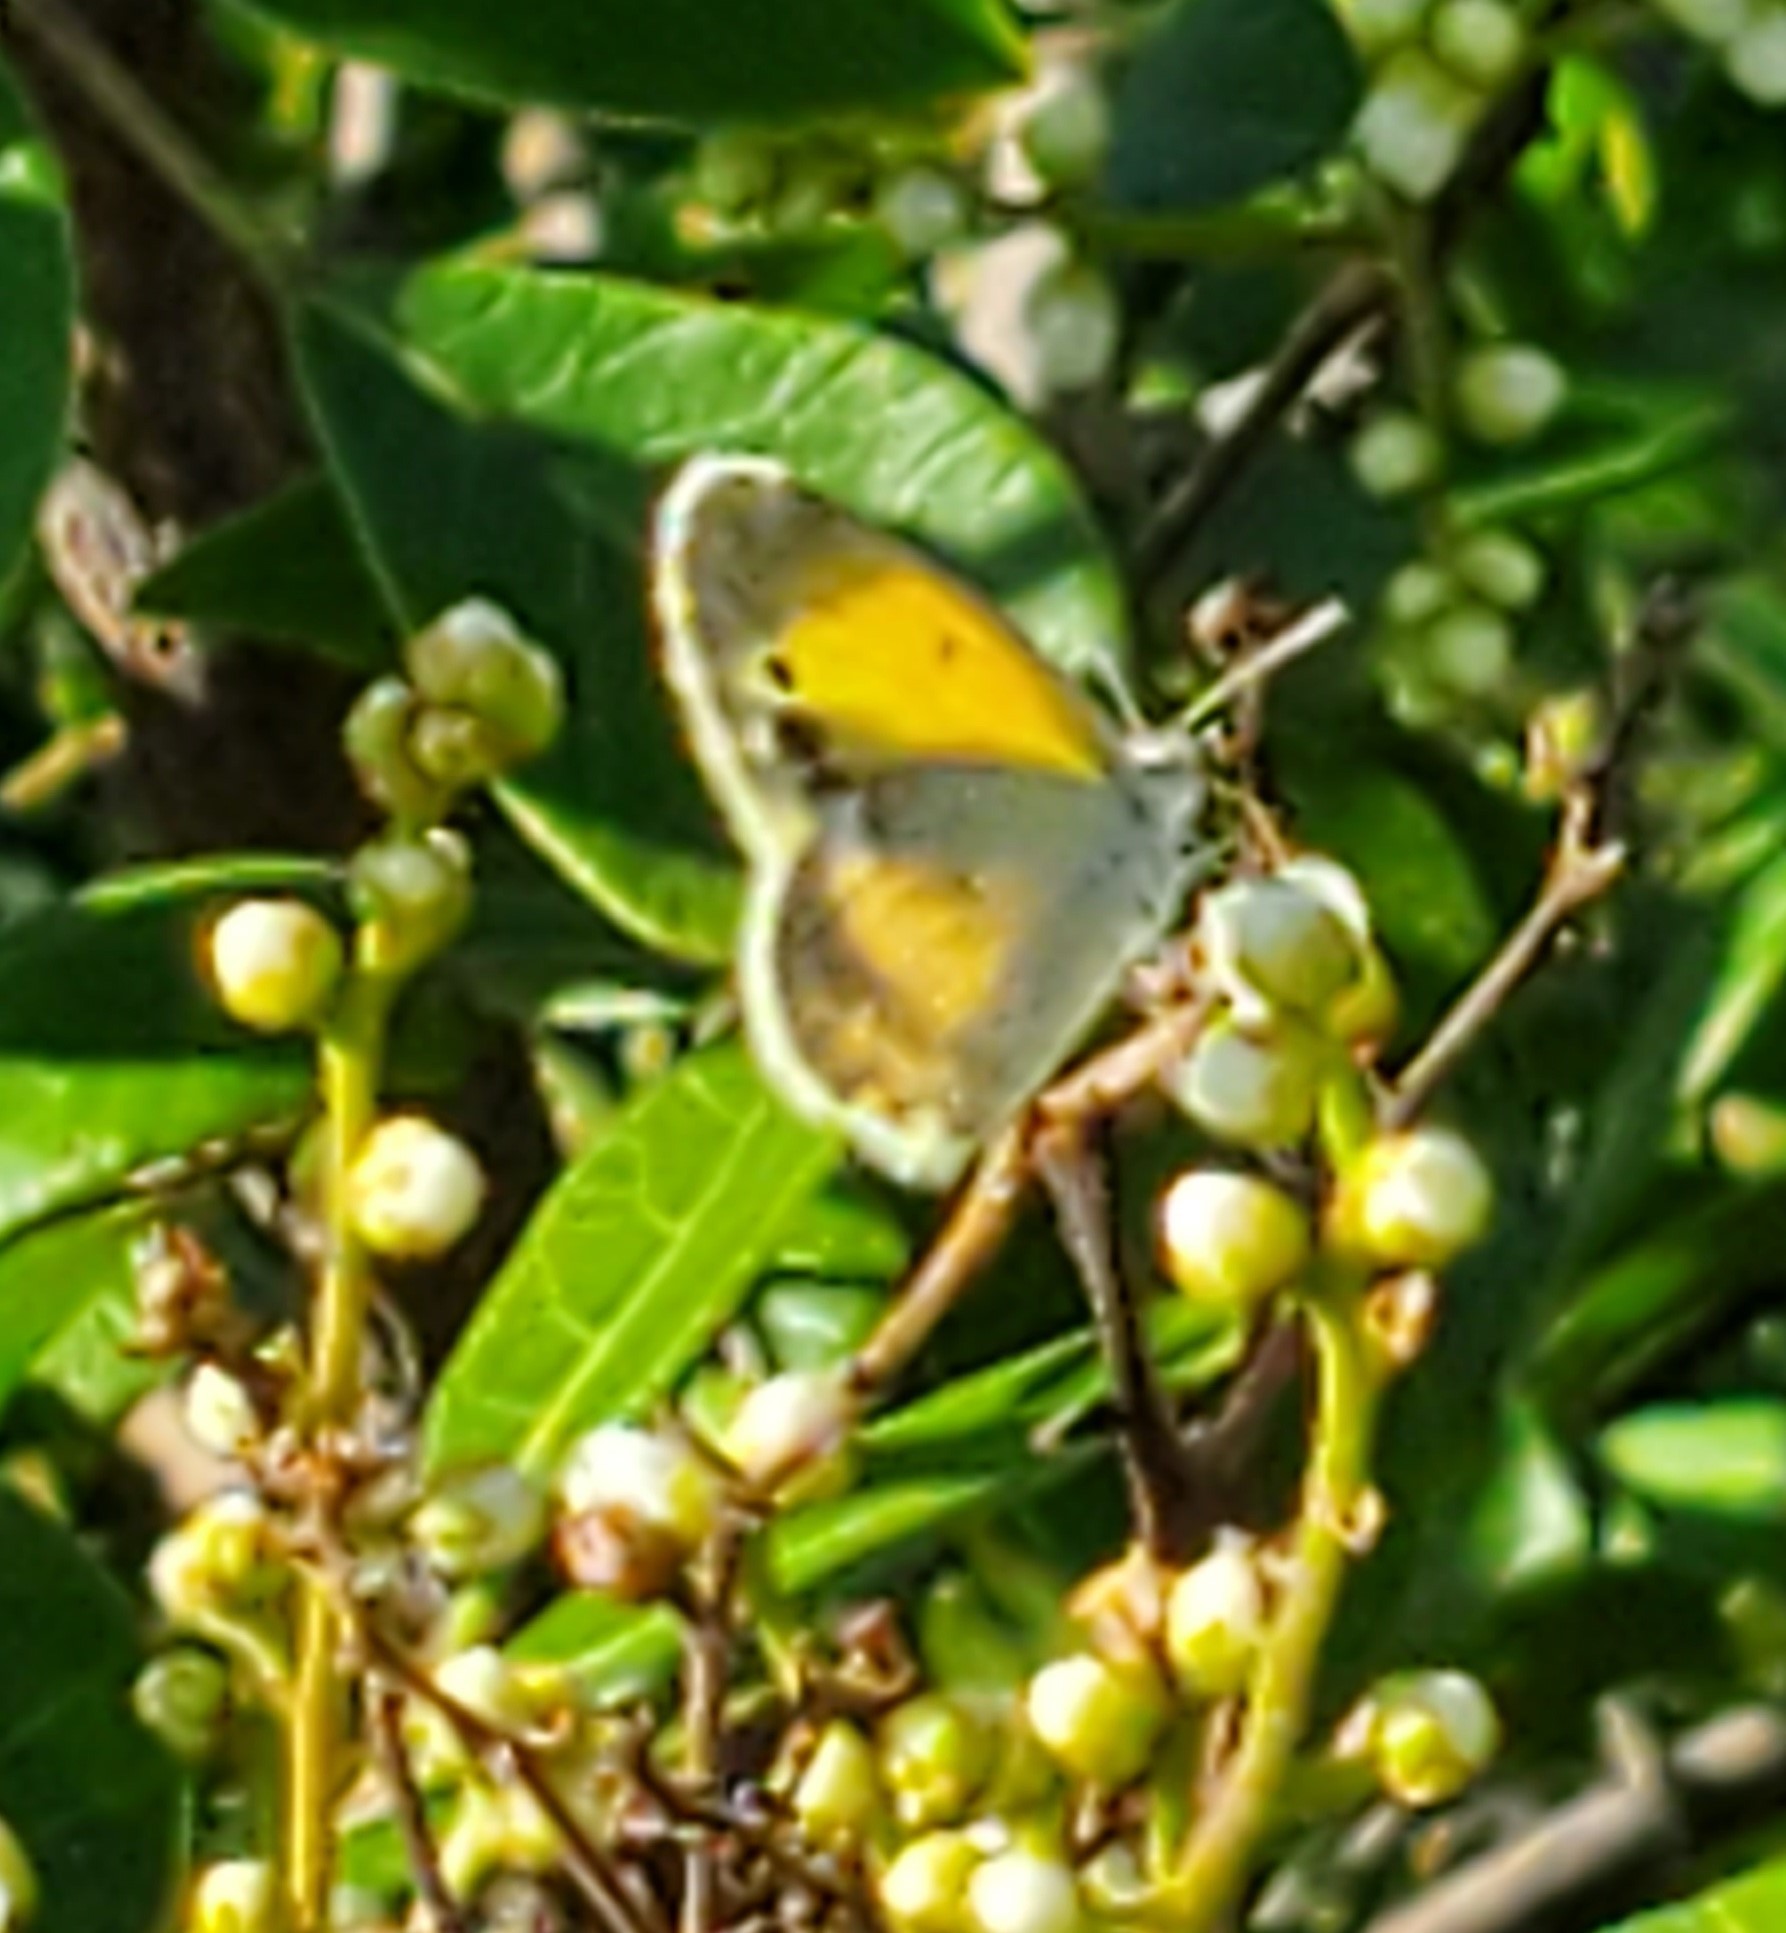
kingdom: Animalia
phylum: Arthropoda
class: Insecta
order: Lepidoptera
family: Pieridae
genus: Nathalis
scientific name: Nathalis iole
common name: Dainty sulphur
